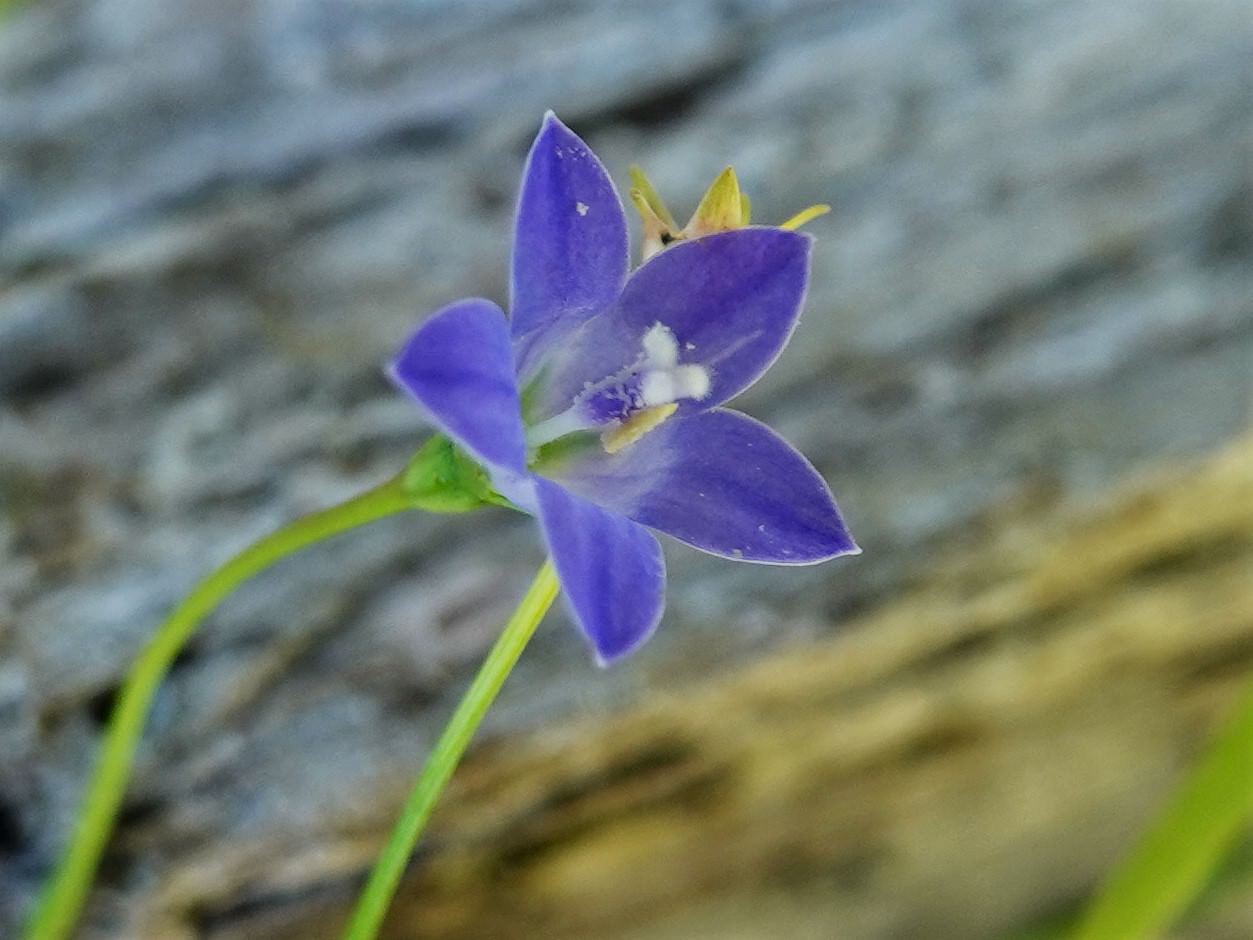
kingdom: Plantae
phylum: Tracheophyta
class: Magnoliopsida
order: Asterales
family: Campanulaceae
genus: Wahlenbergia
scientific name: Wahlenbergia violacea
